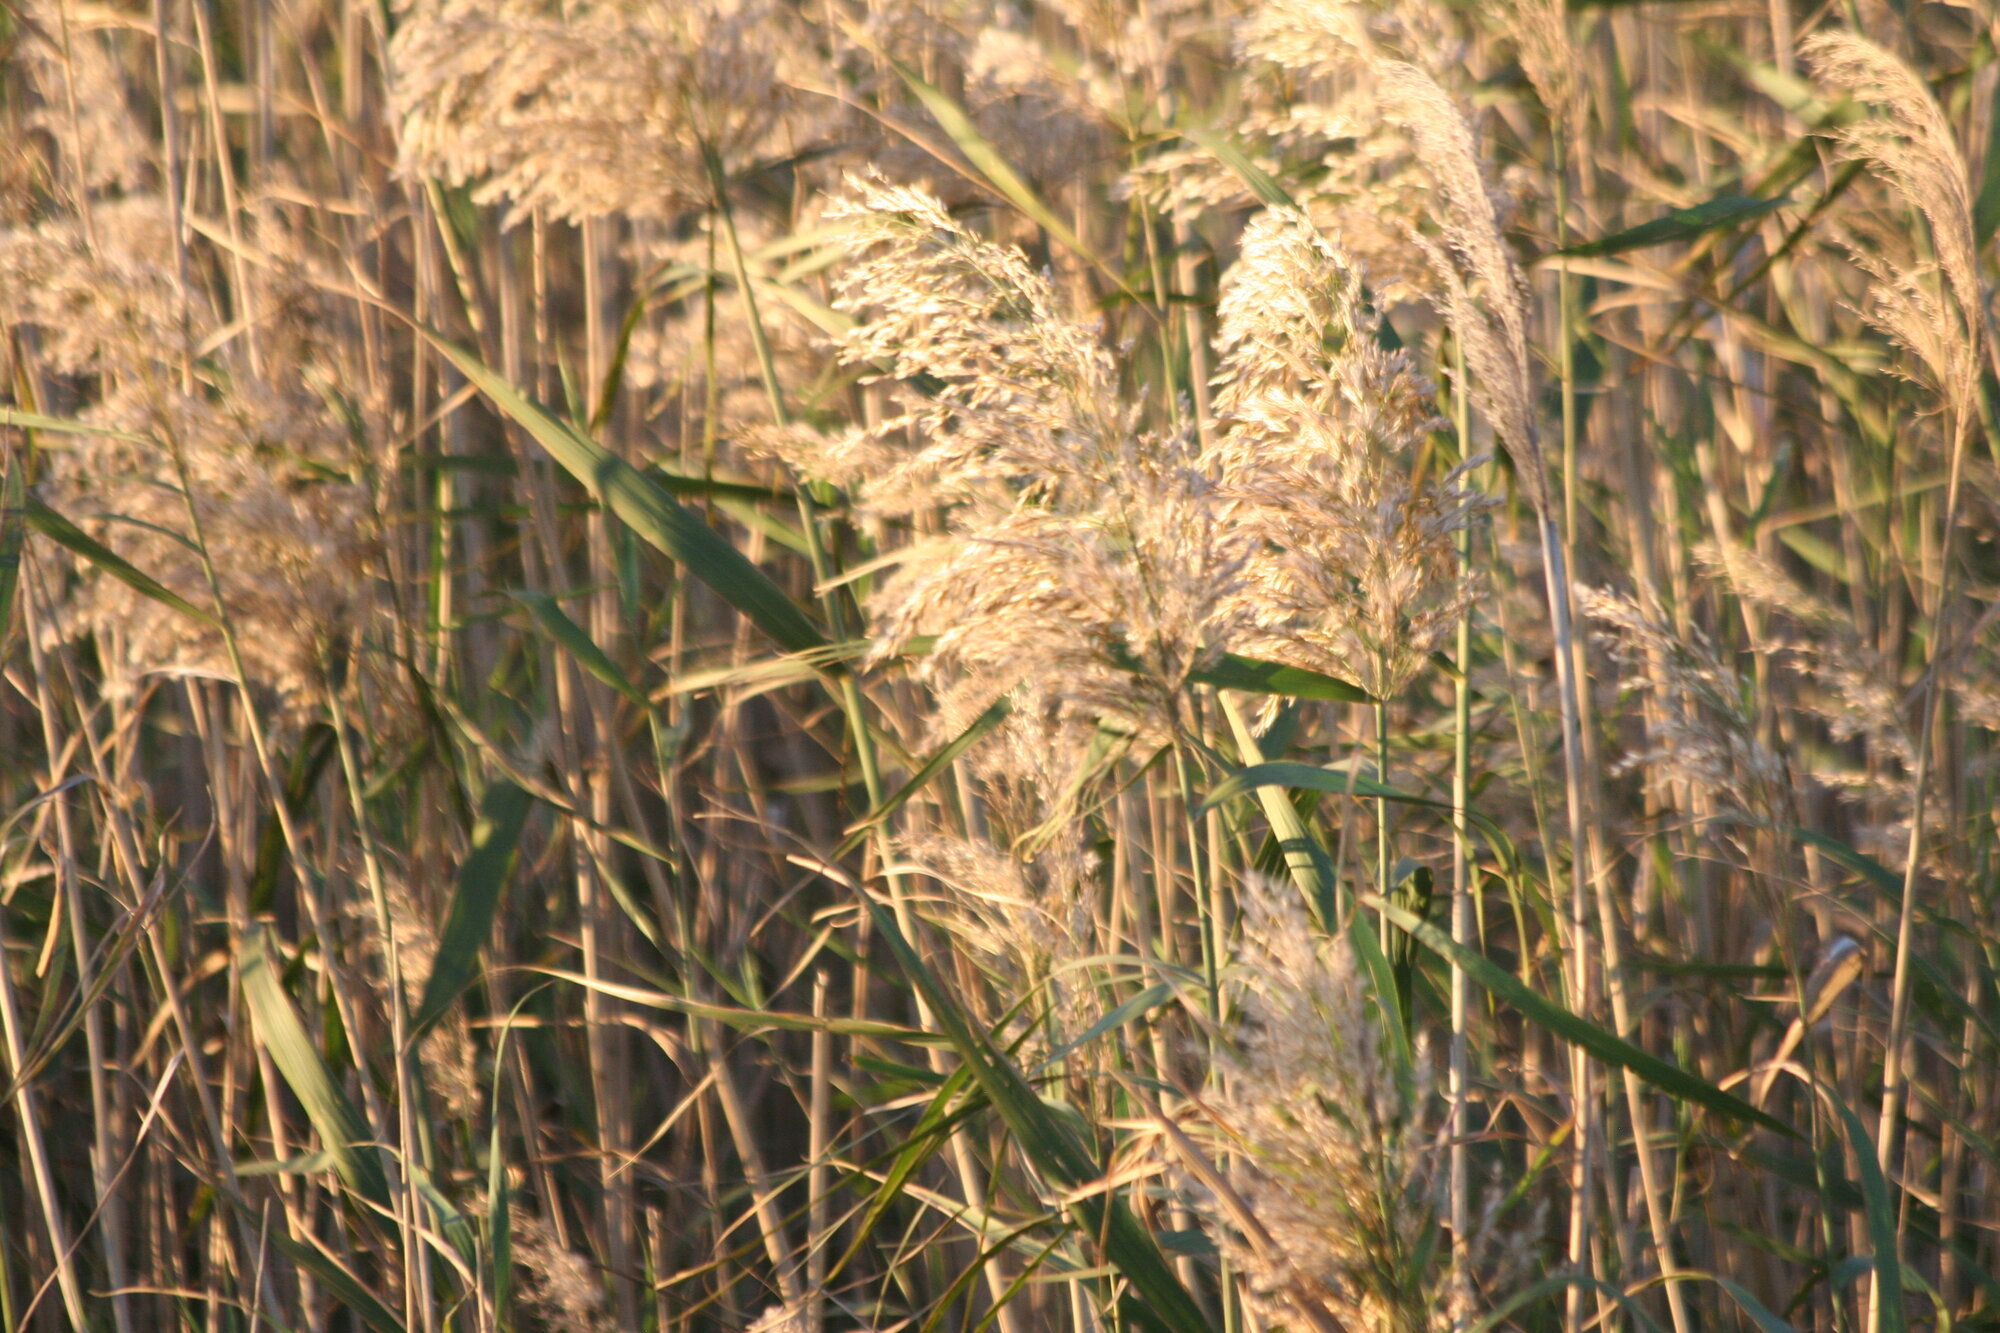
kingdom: Plantae
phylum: Tracheophyta
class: Liliopsida
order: Poales
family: Poaceae
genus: Phragmites
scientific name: Phragmites australis
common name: Common reed
